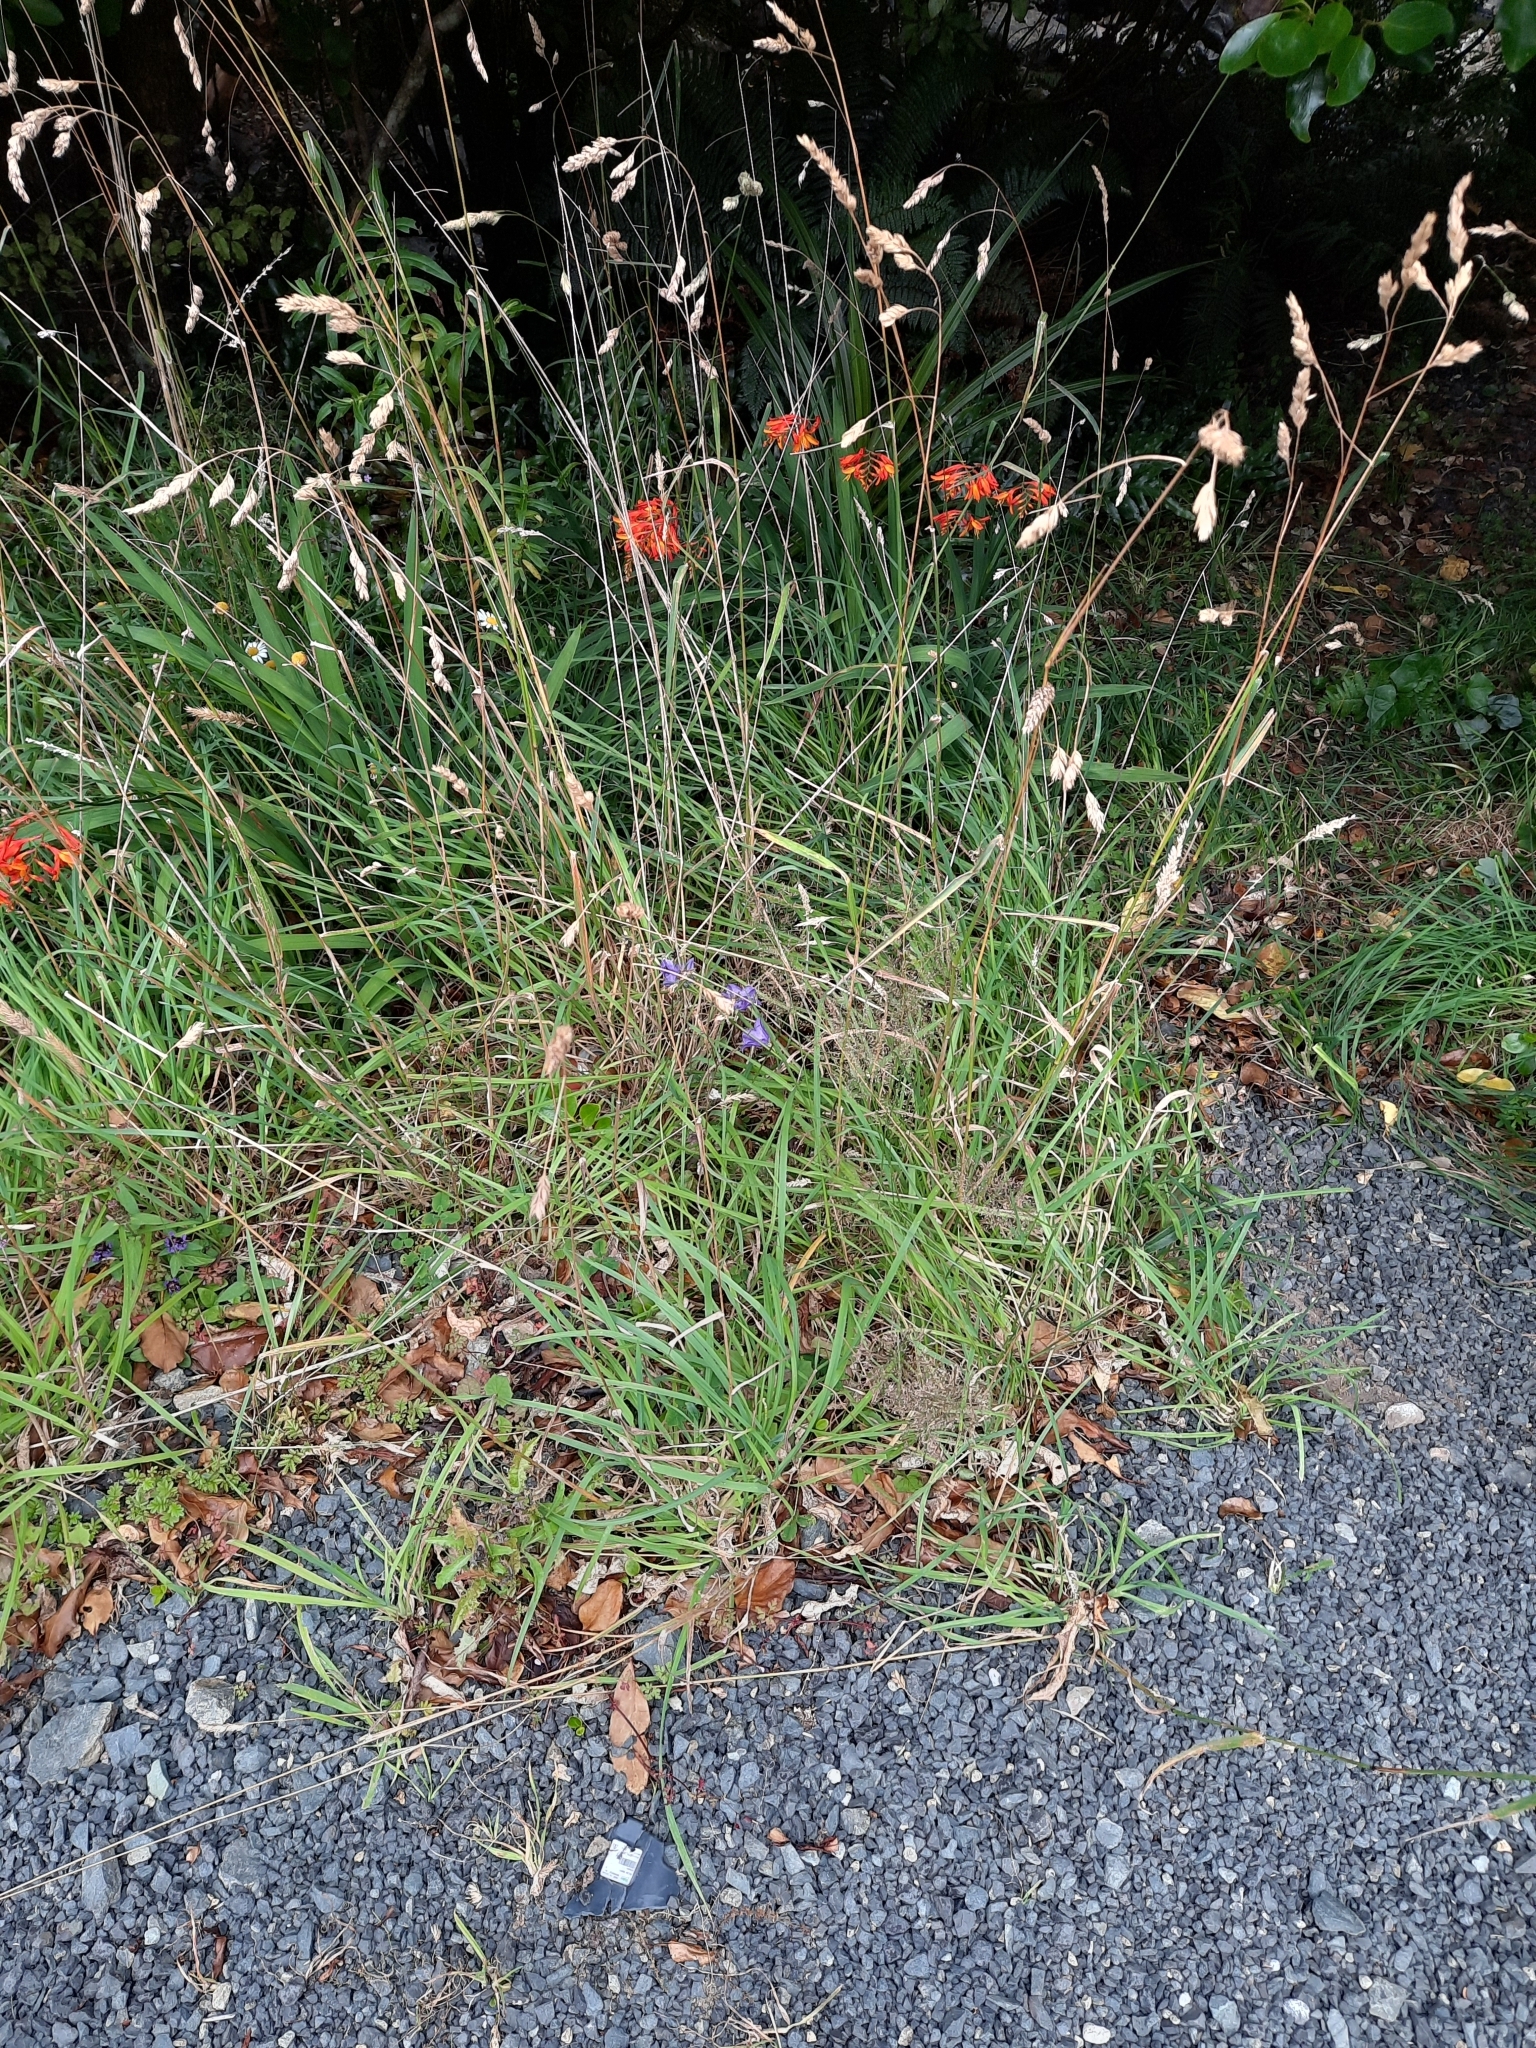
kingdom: Plantae
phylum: Tracheophyta
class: Magnoliopsida
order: Asterales
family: Campanulaceae
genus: Campanula
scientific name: Campanula persicifolia
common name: Peach-leaved bellflower
